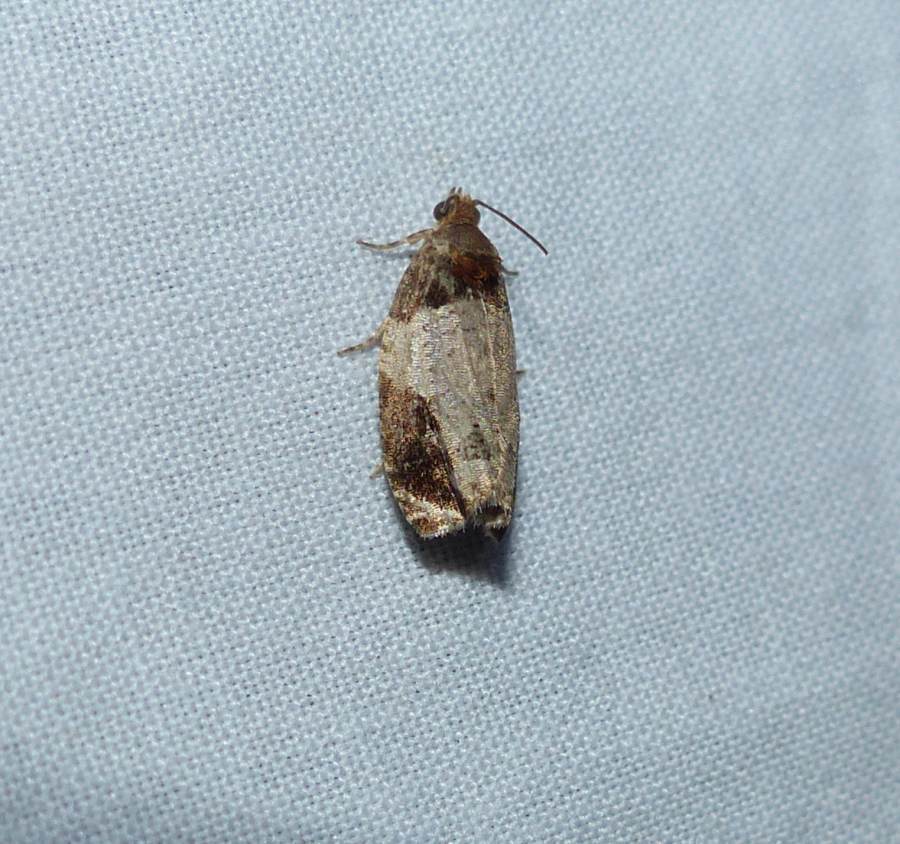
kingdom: Animalia
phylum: Arthropoda
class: Insecta
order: Lepidoptera
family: Tortricidae
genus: Olethreutes
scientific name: Olethreutes ferriferana
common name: Hydrangea leaftier moth
